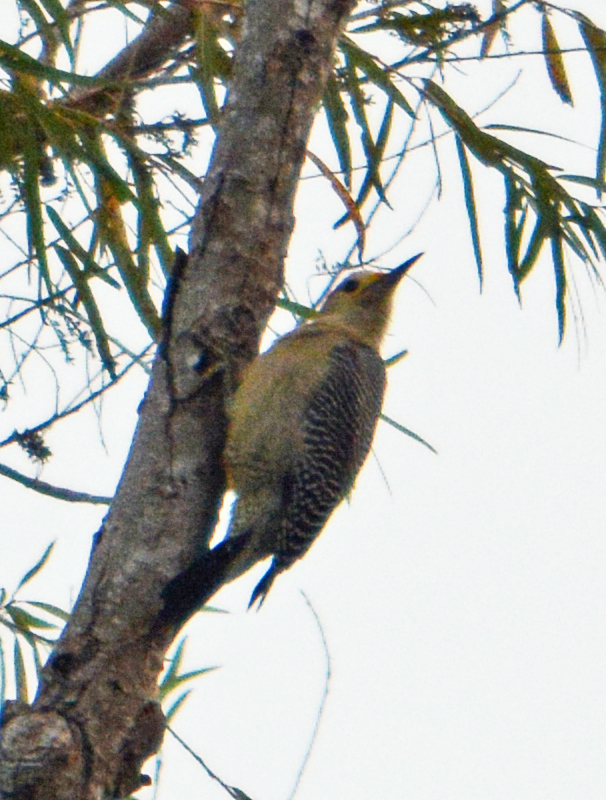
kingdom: Animalia
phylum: Chordata
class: Aves
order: Piciformes
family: Picidae
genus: Melanerpes
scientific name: Melanerpes aurifrons
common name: Golden-fronted woodpecker
